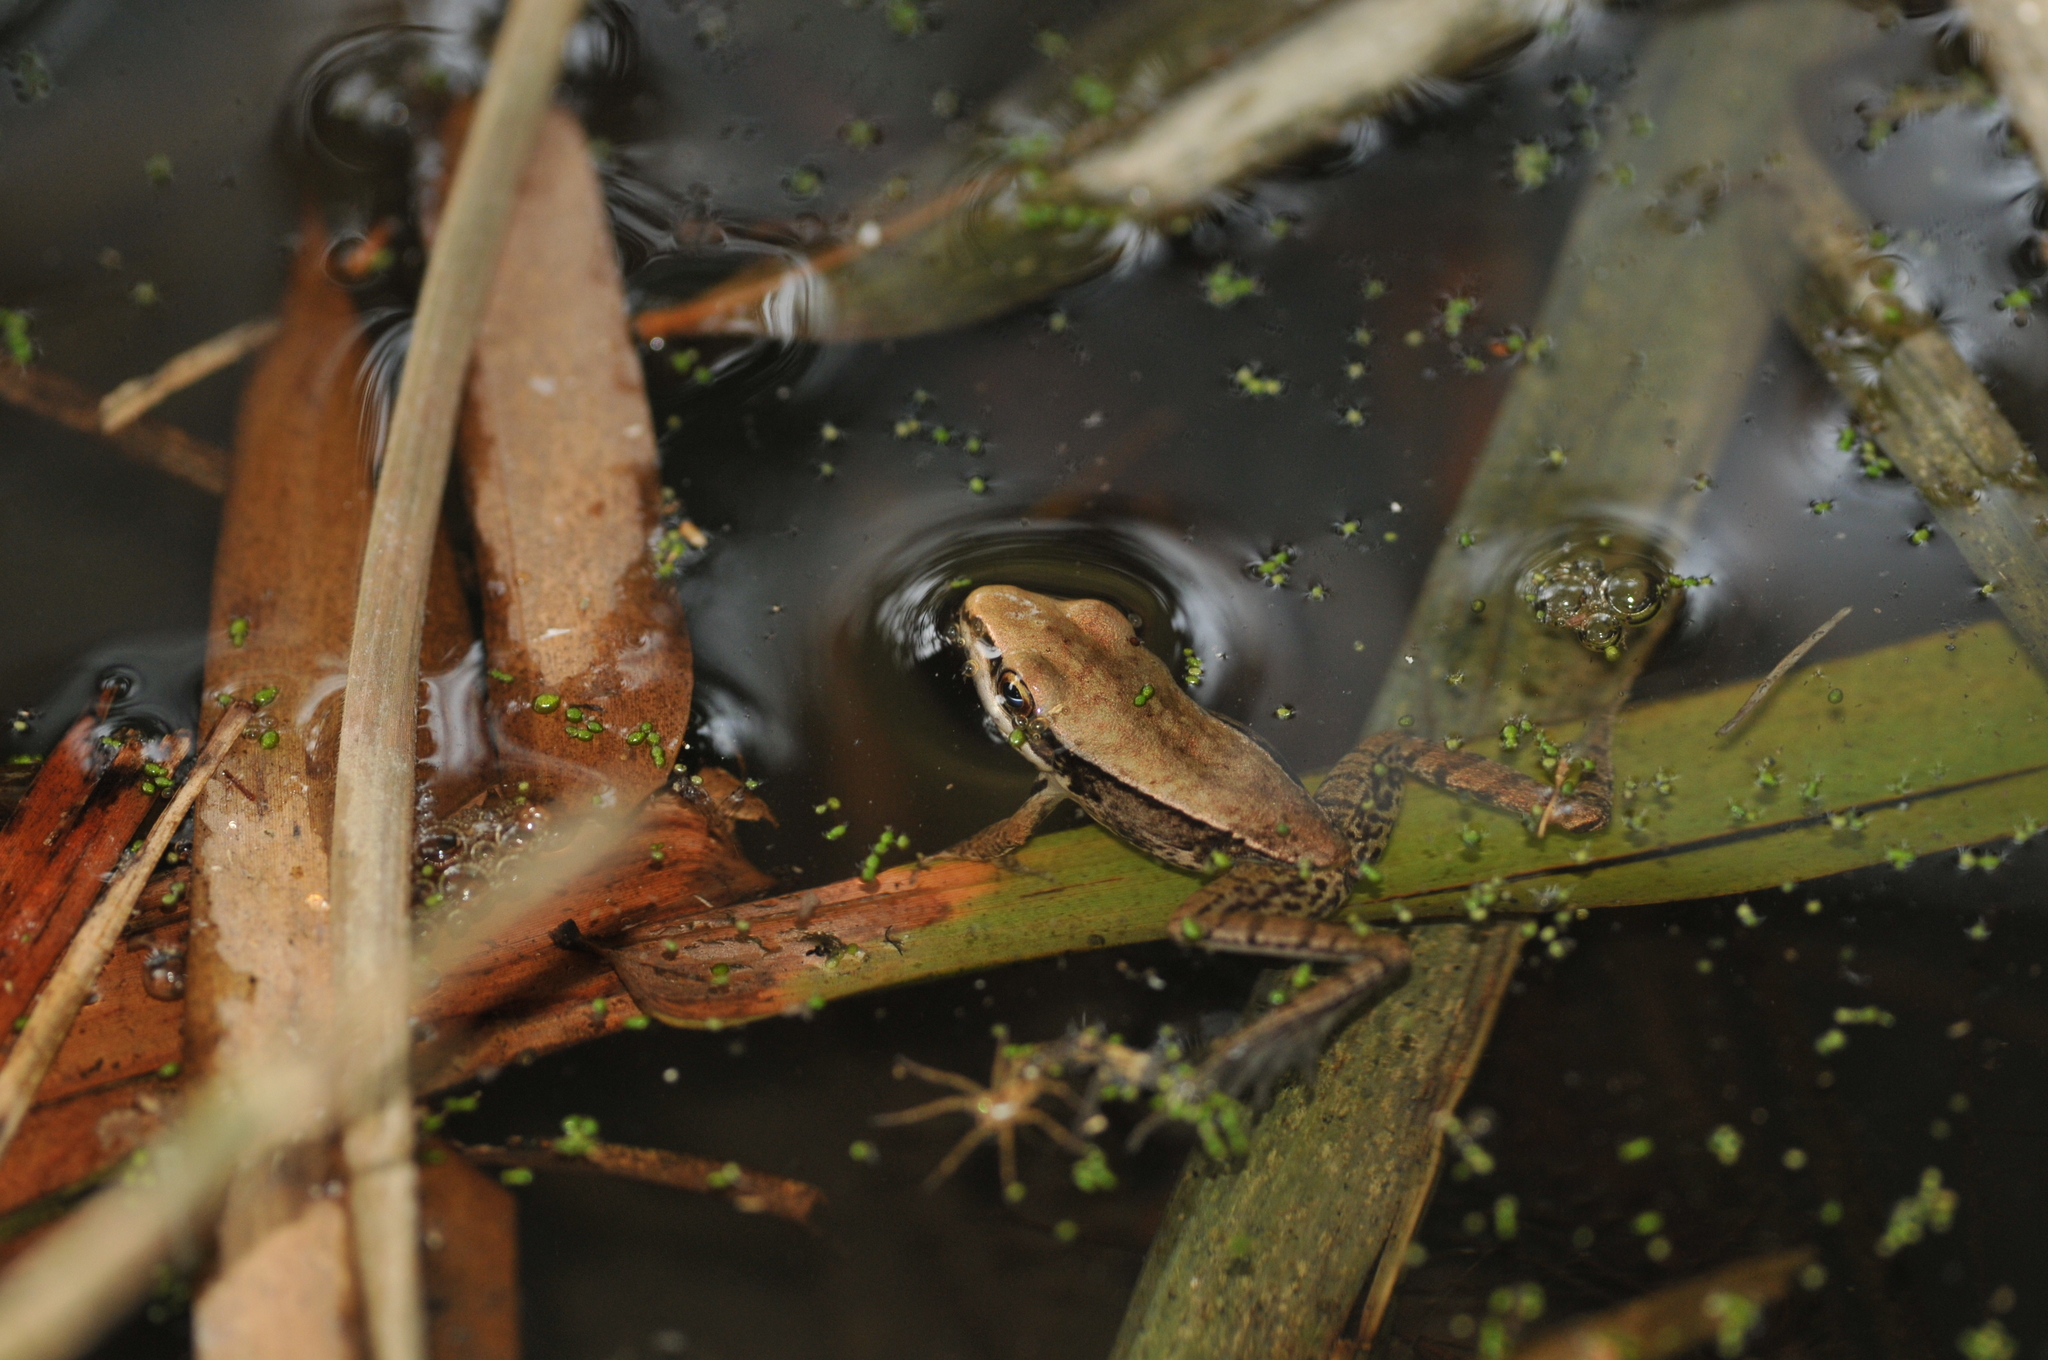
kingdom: Animalia
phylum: Chordata
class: Amphibia
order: Anura
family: Ranidae
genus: Hylarana
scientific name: Hylarana latouchii
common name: Broad-folded frog
